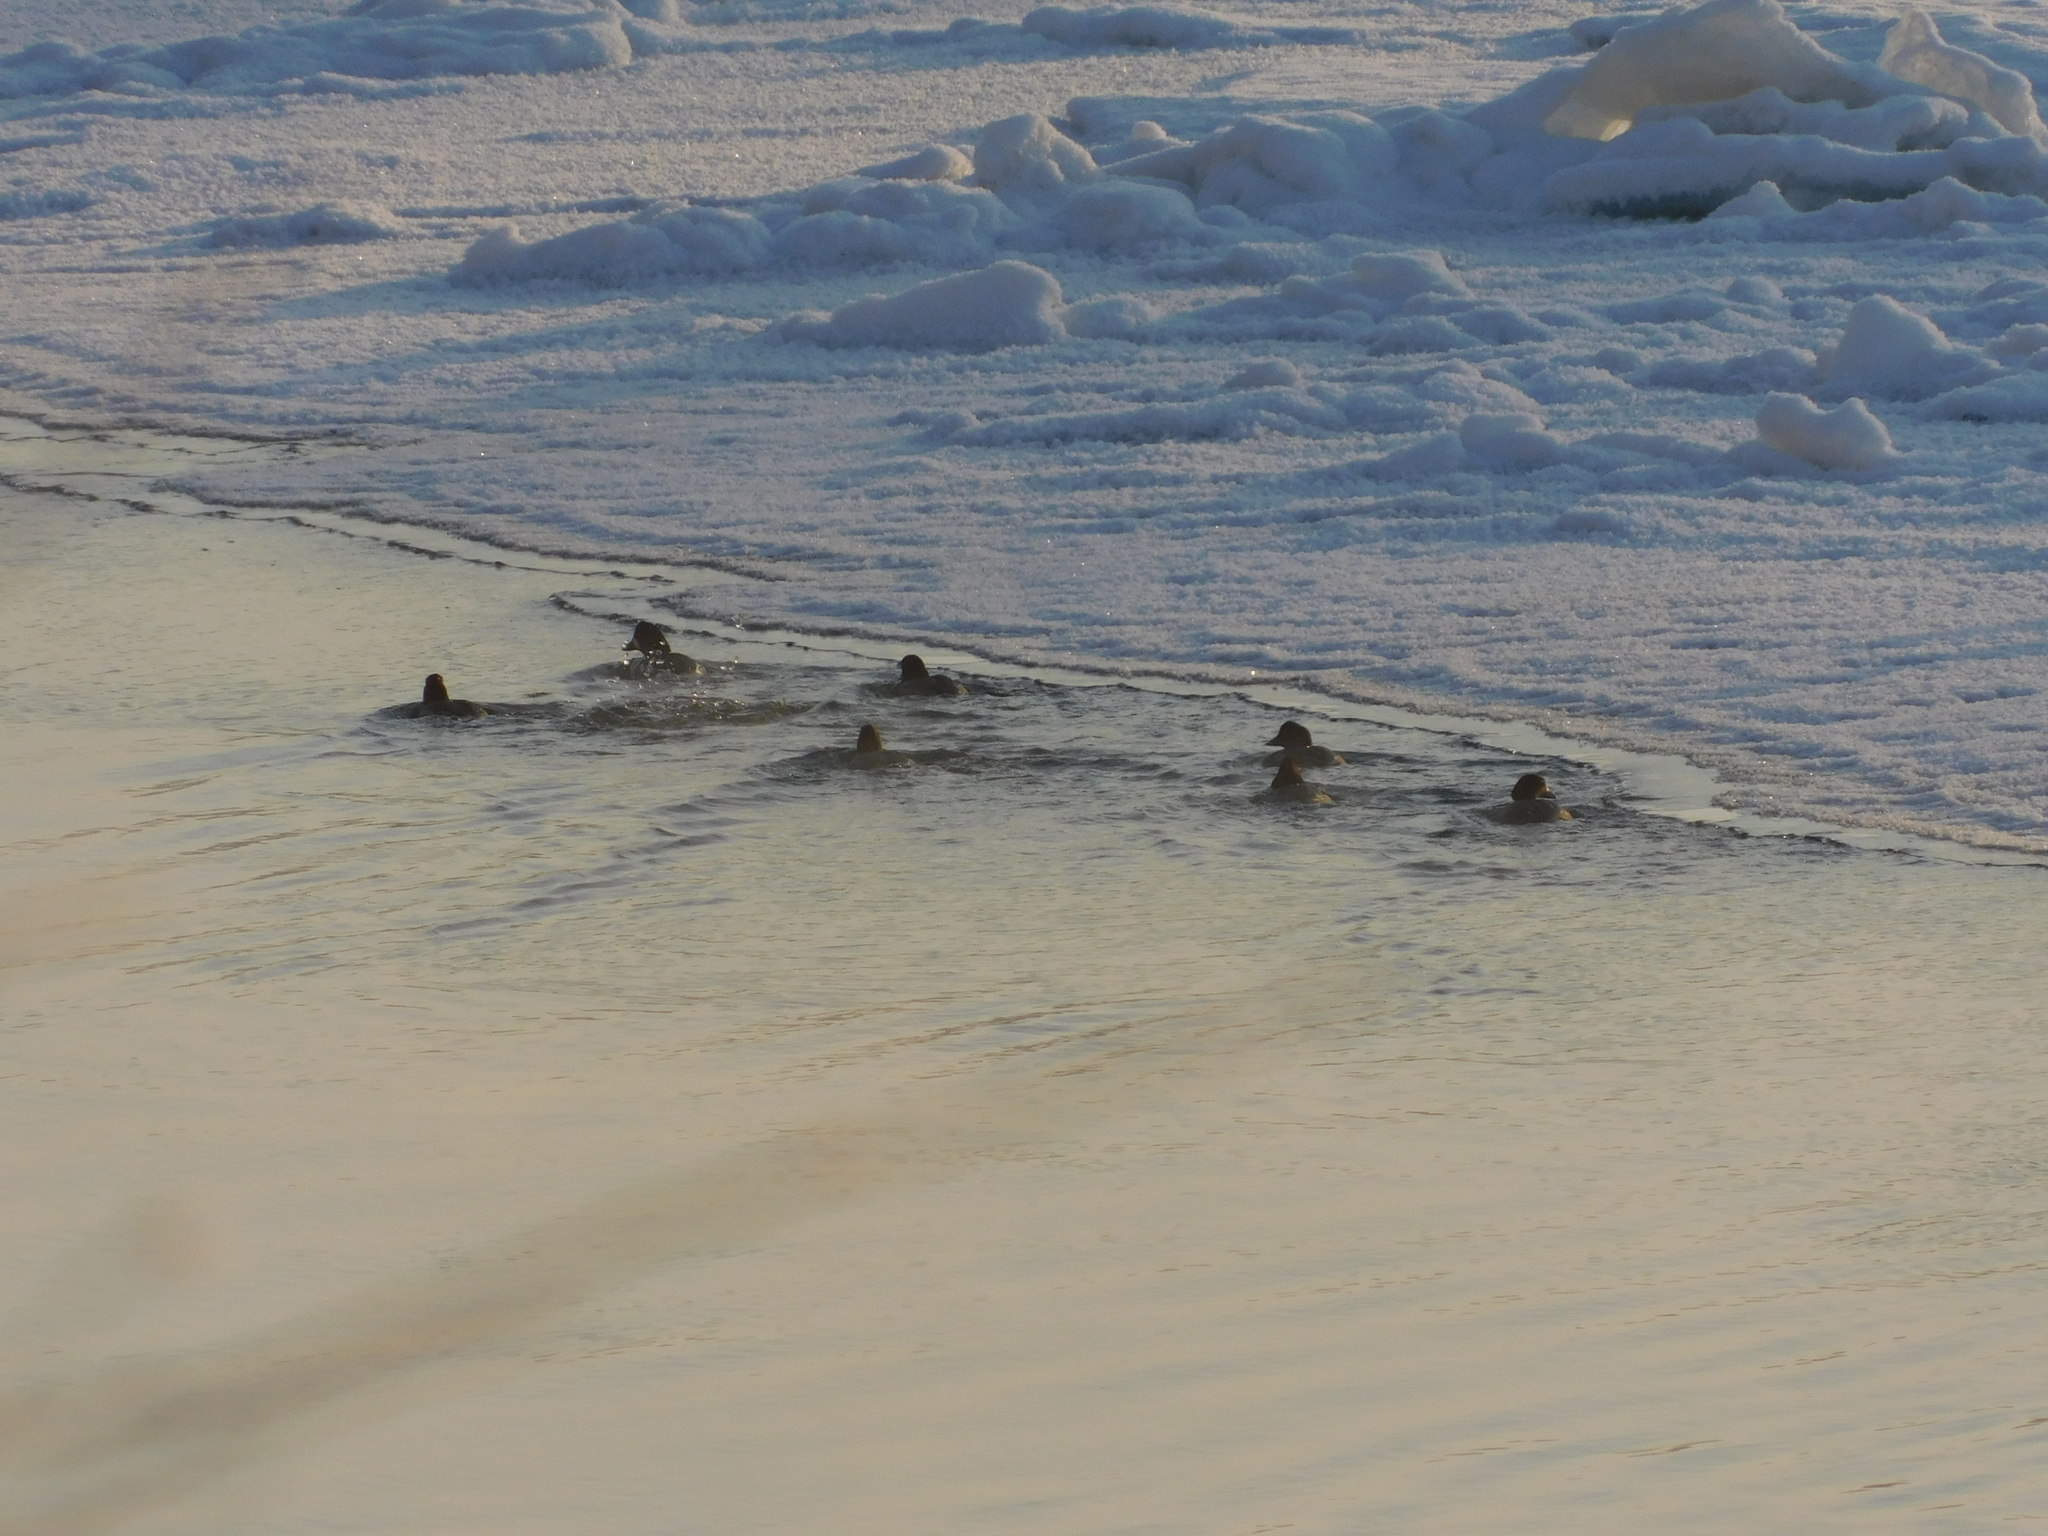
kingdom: Animalia
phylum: Chordata
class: Aves
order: Anseriformes
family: Anatidae
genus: Bucephala
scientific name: Bucephala clangula
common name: Common goldeneye
